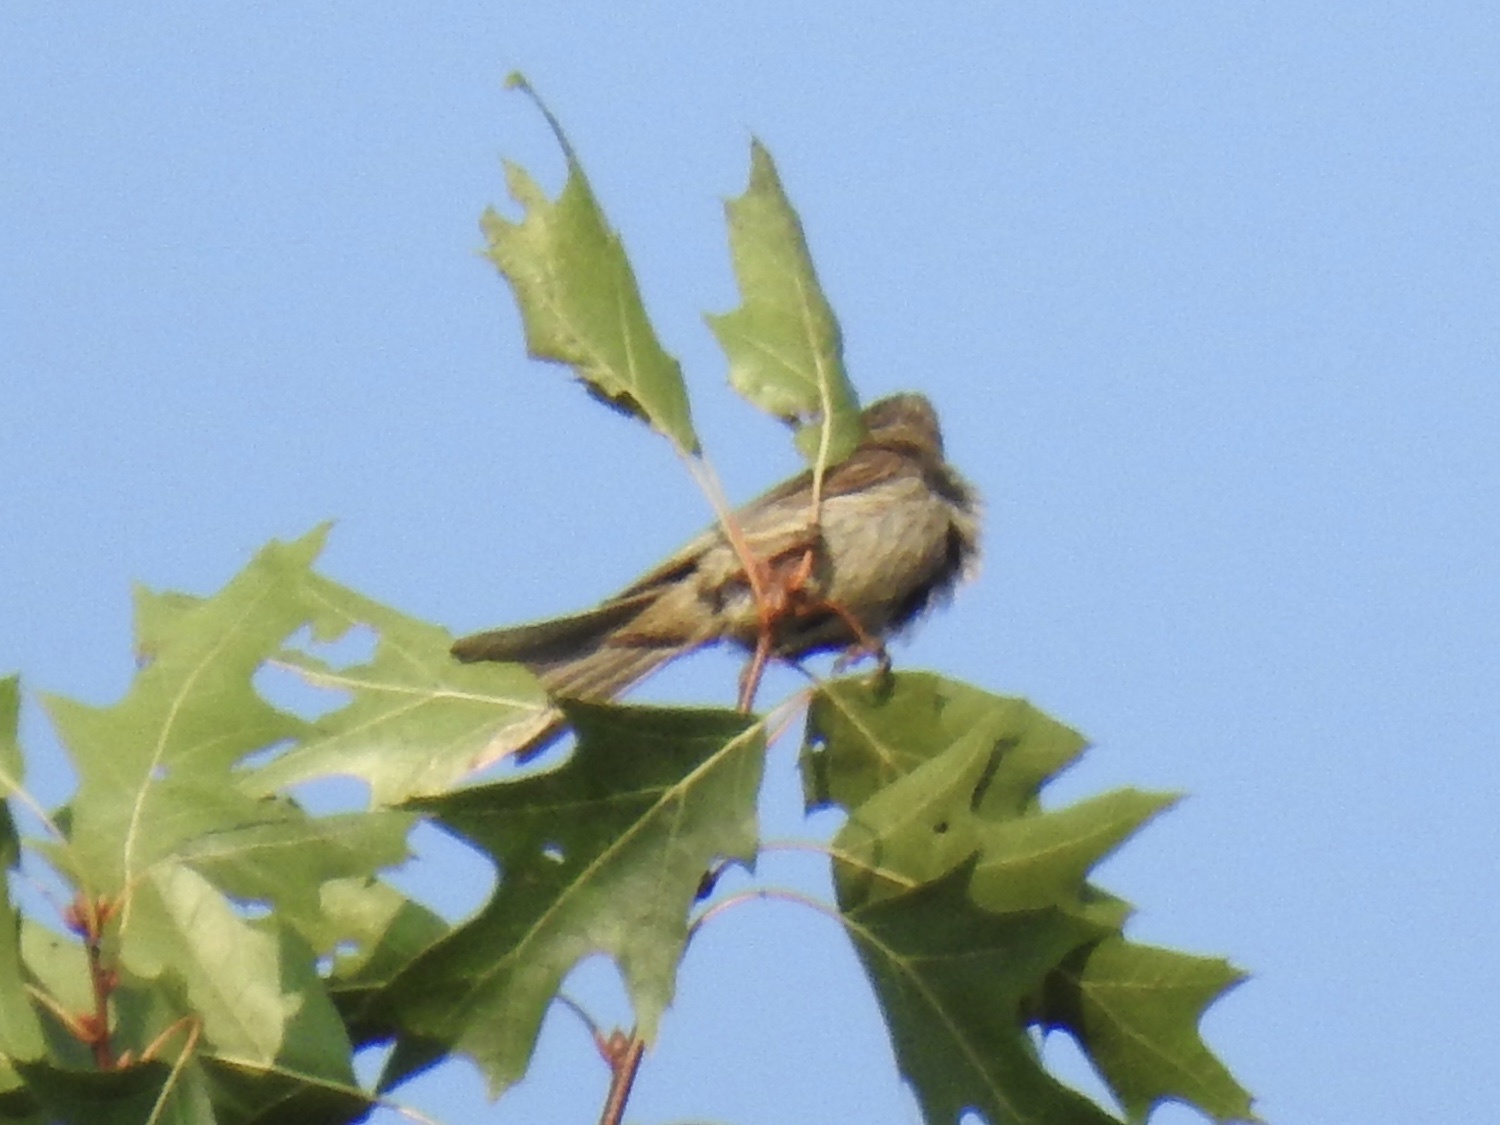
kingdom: Animalia
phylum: Chordata
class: Aves
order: Passeriformes
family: Fringillidae
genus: Haemorhous
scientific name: Haemorhous mexicanus
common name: House finch
